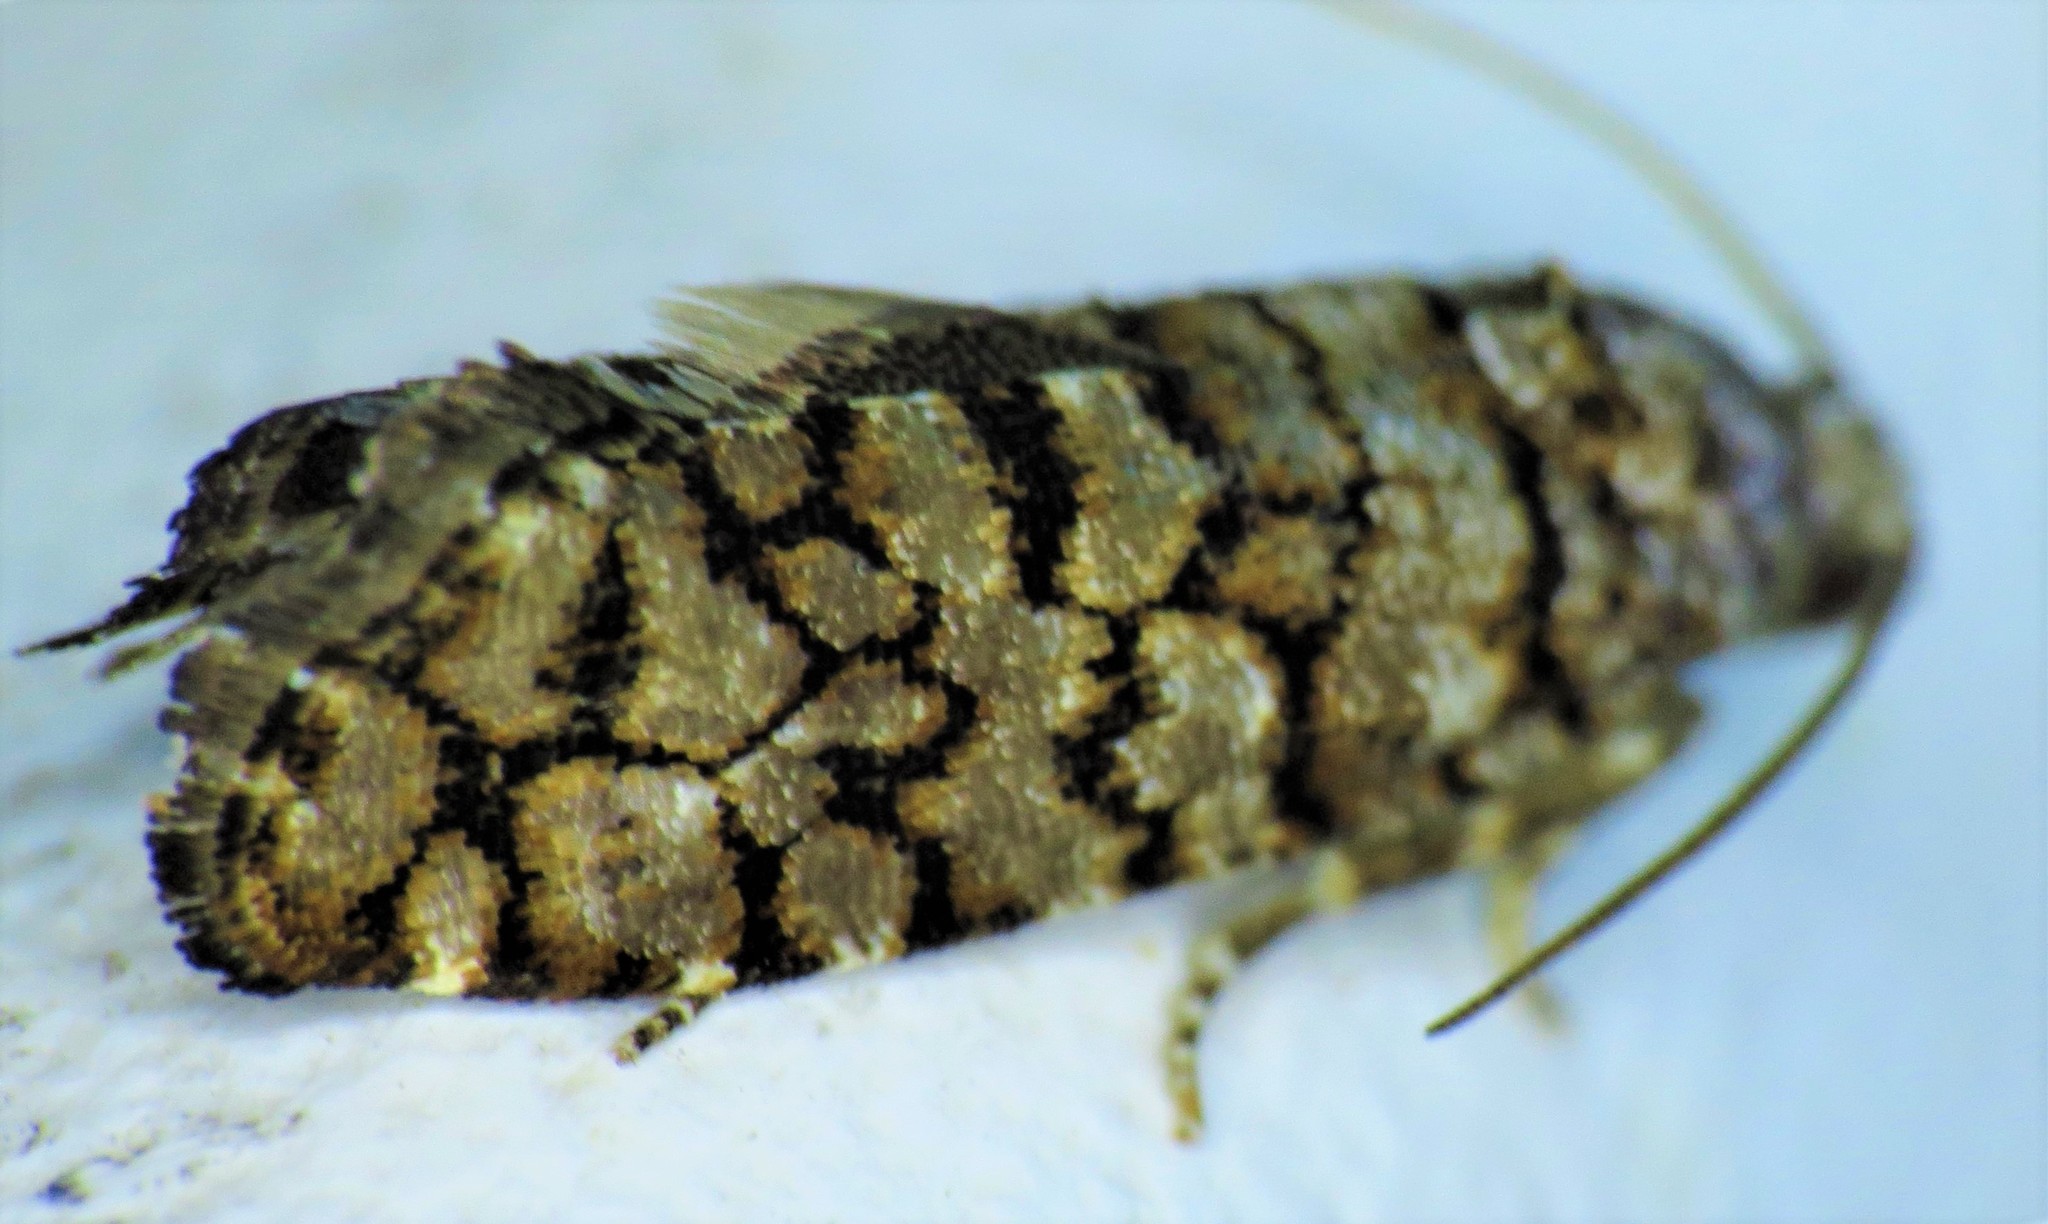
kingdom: Animalia
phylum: Arthropoda
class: Insecta
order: Lepidoptera
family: Tortricidae
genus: Barbara
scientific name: Barbara mappana
